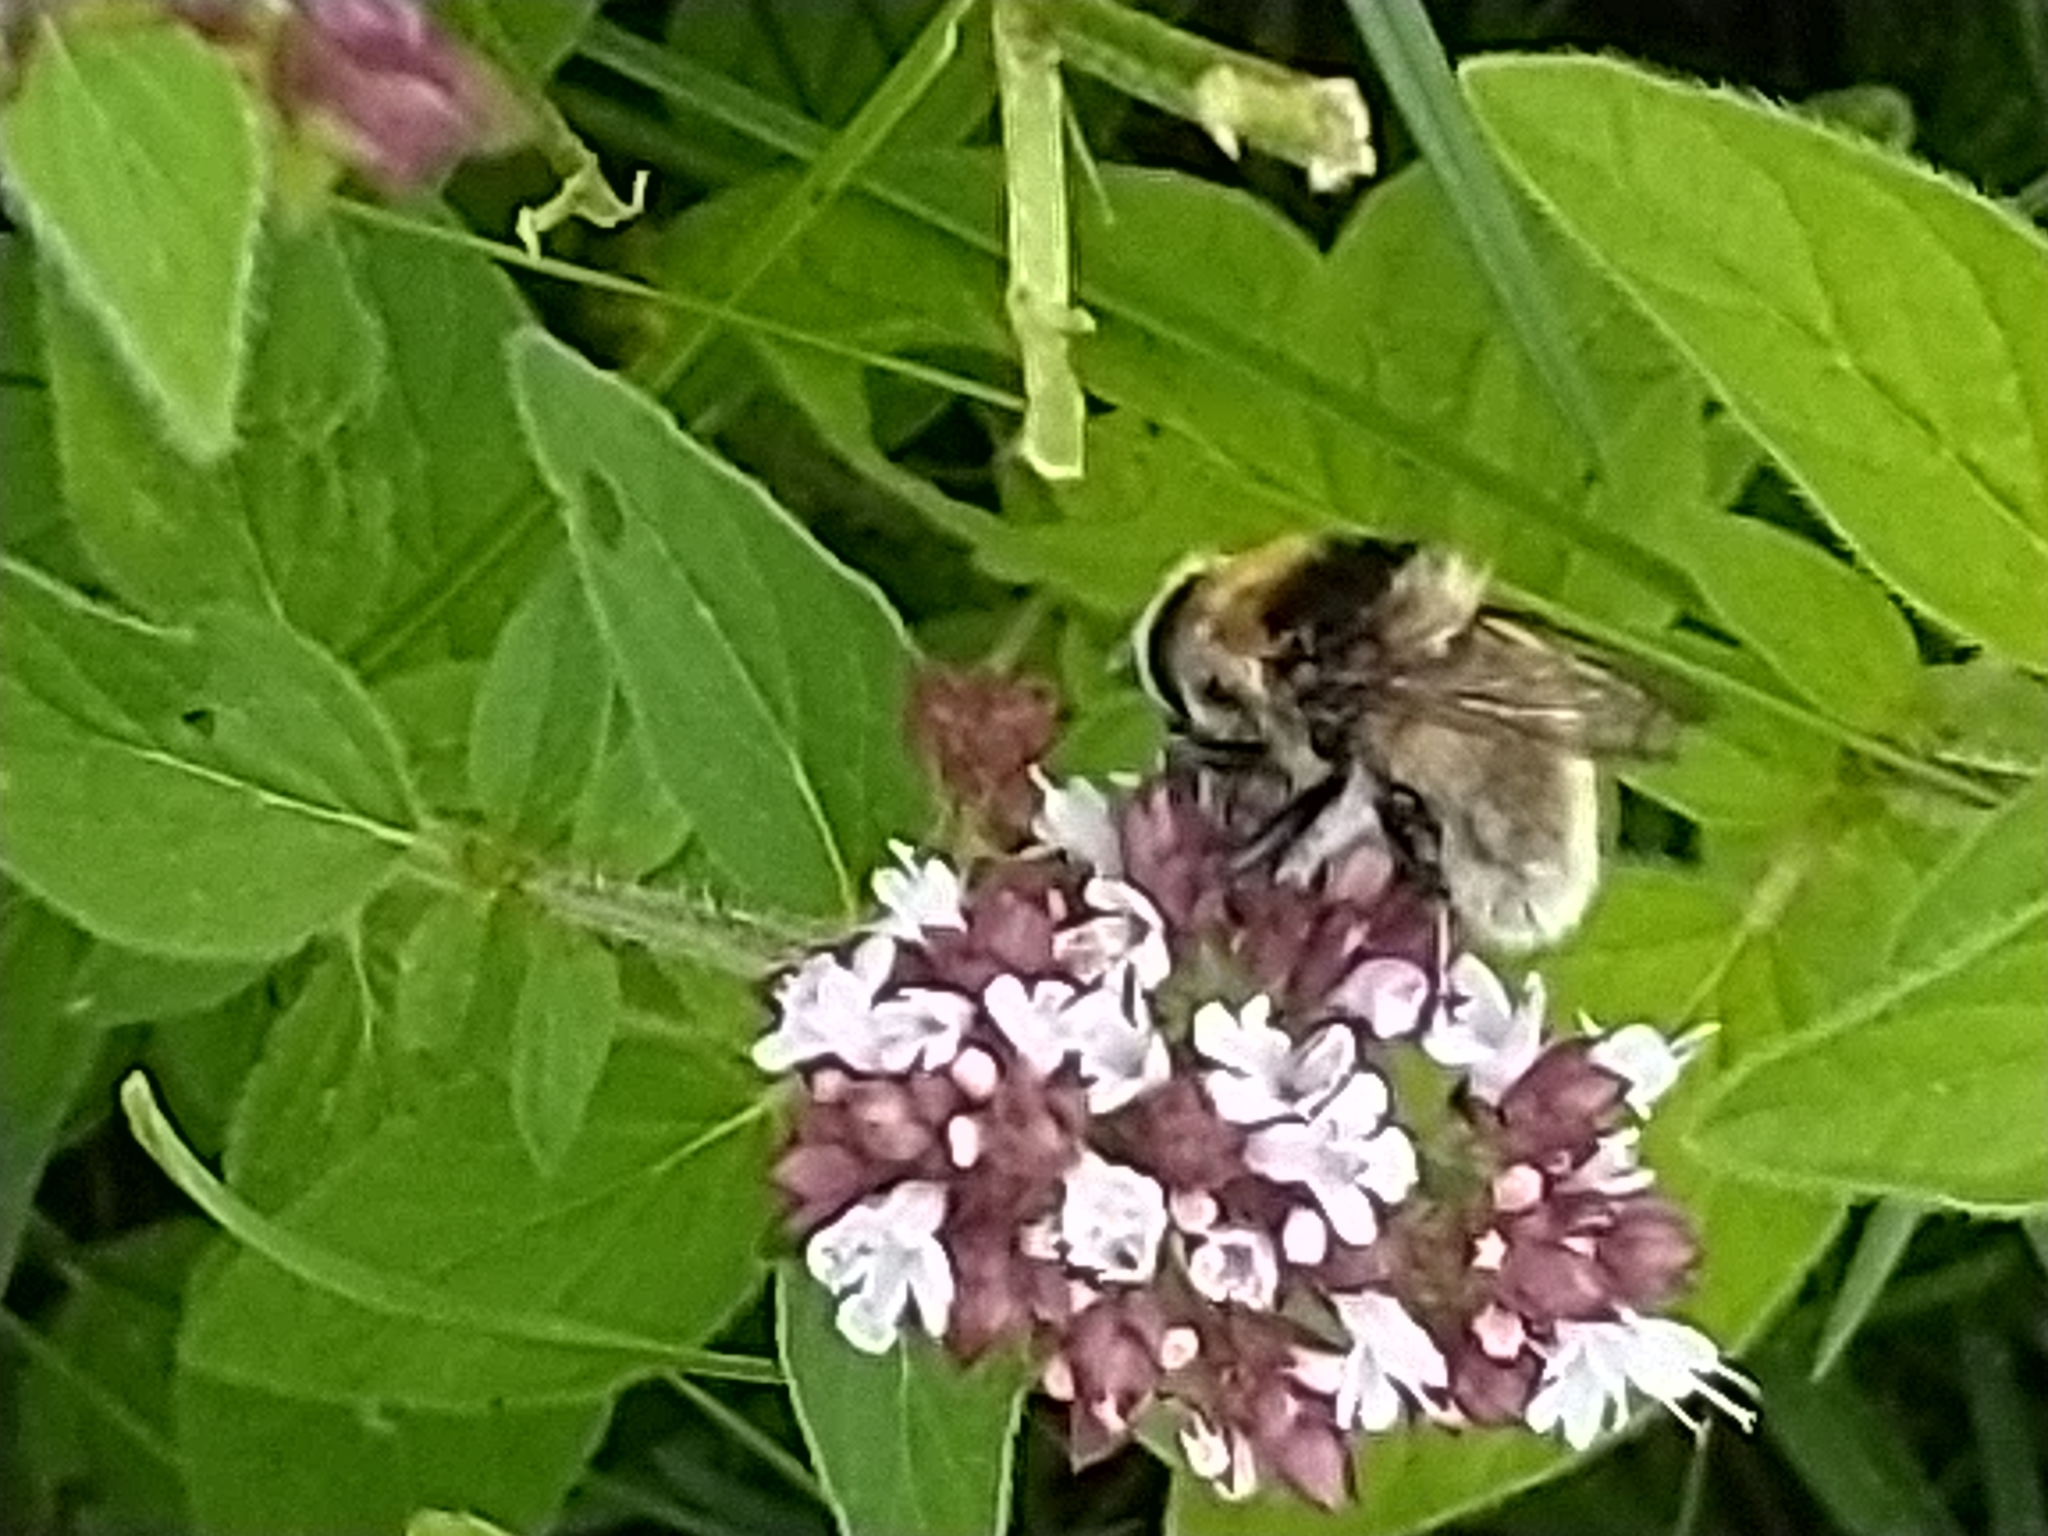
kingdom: Animalia
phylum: Arthropoda
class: Insecta
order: Diptera
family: Syrphidae
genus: Merodon
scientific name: Merodon equestris
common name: Greater bulb-fly
